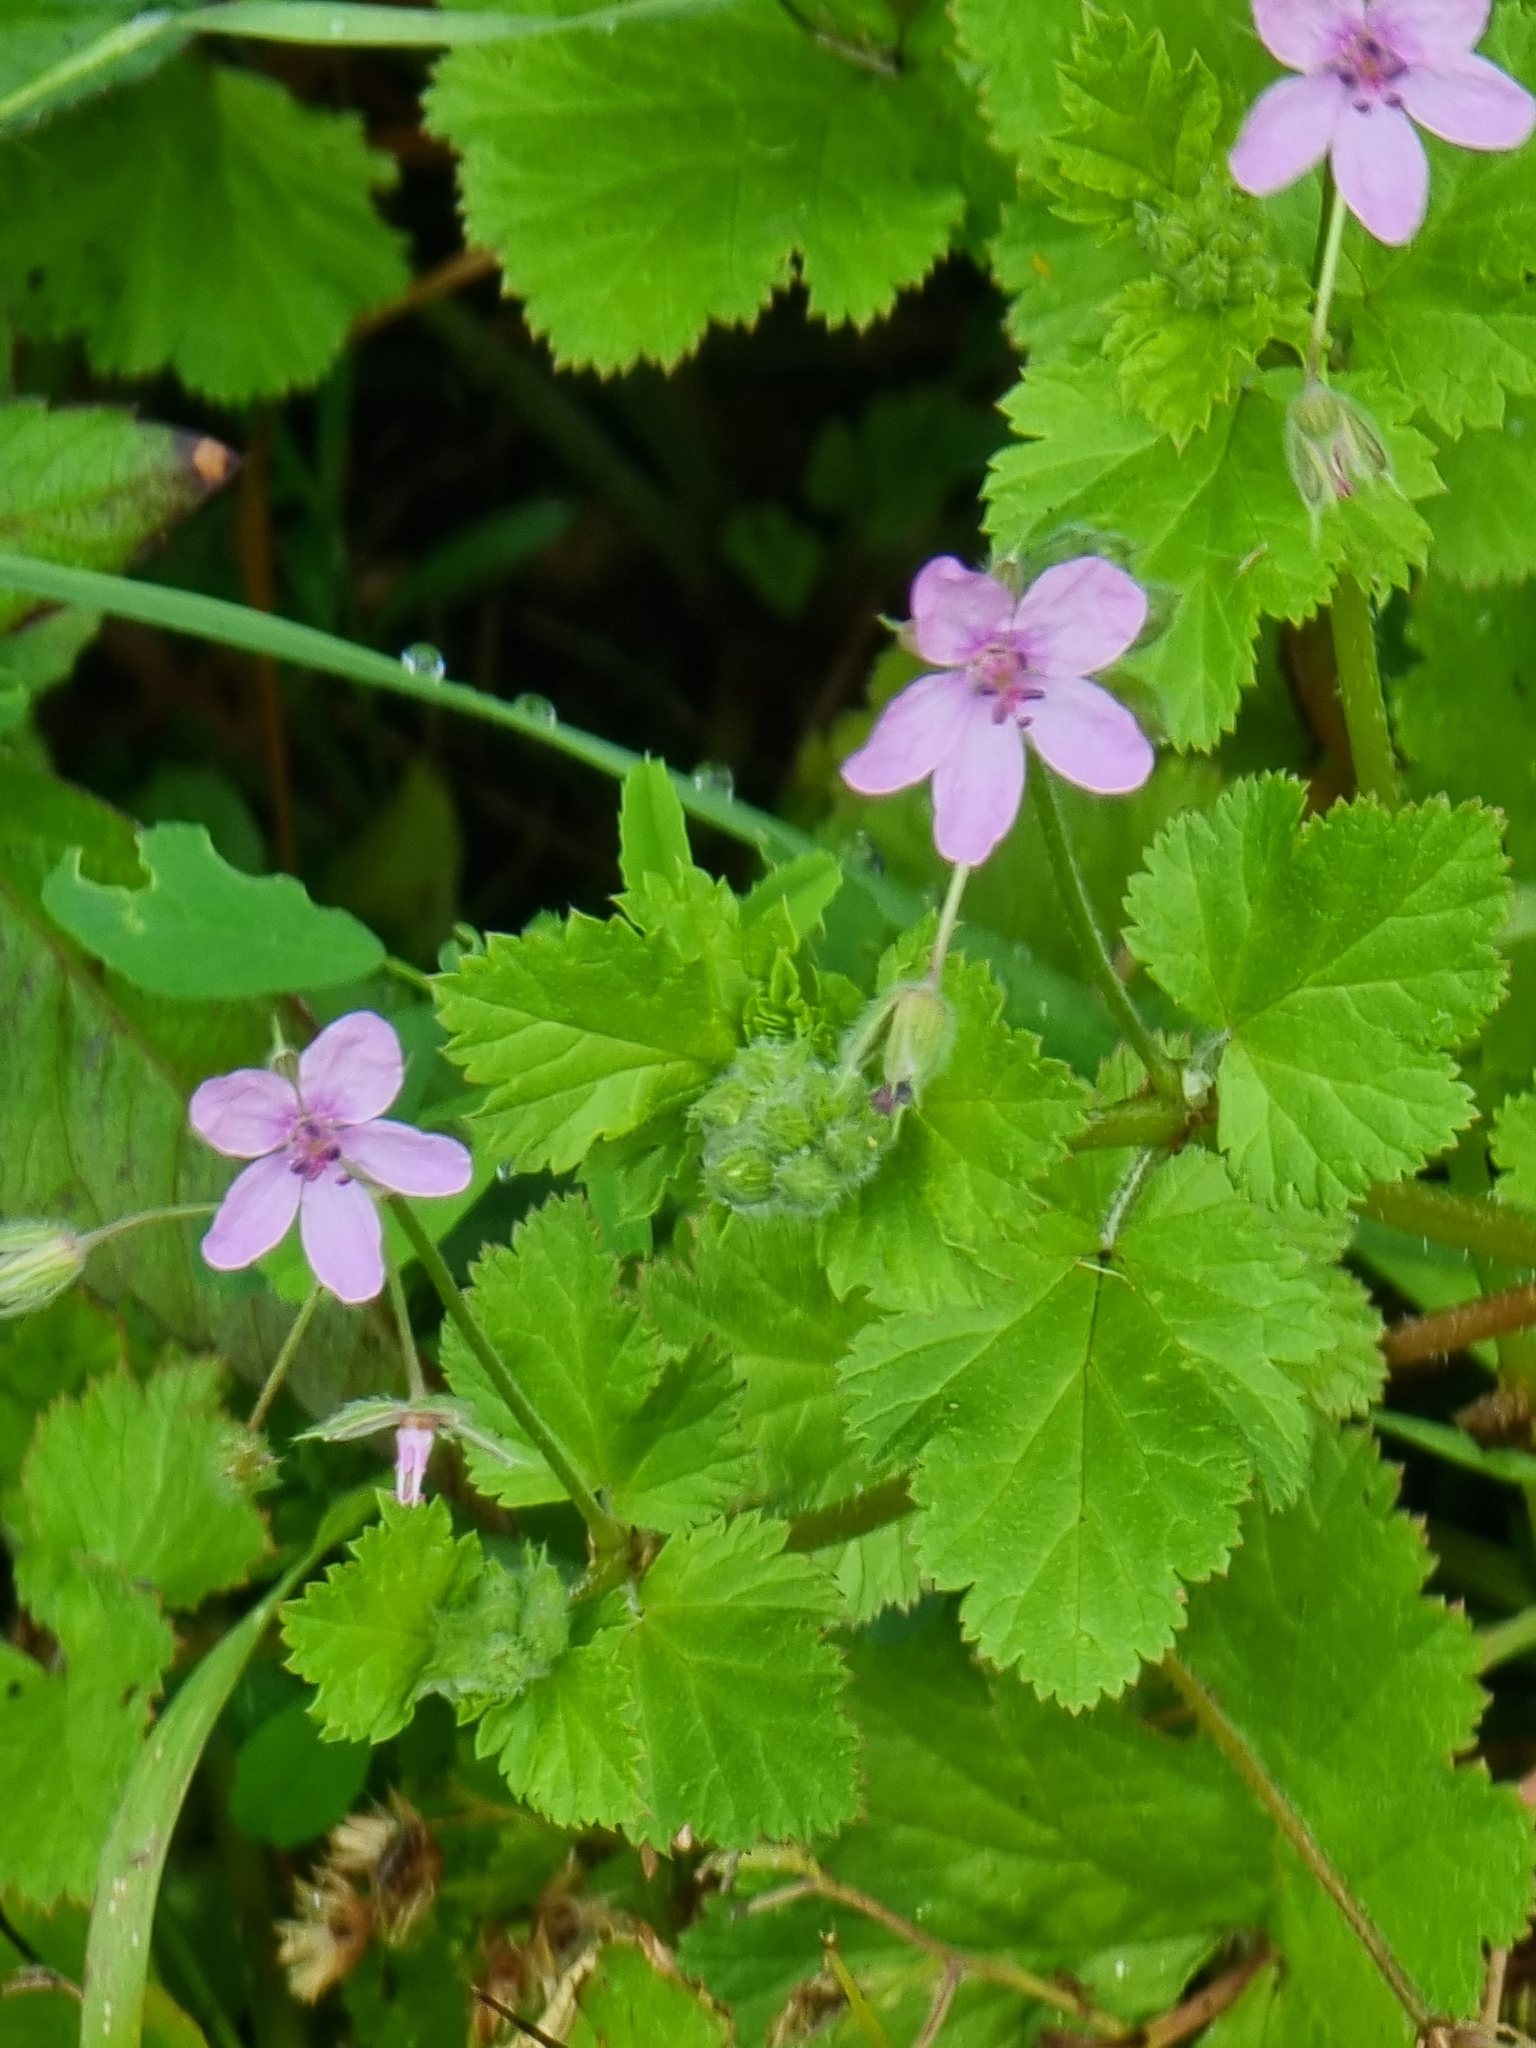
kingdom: Plantae
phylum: Tracheophyta
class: Magnoliopsida
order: Geraniales
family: Geraniaceae
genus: Erodium
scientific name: Erodium malacoides
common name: Soft stork's-bill
